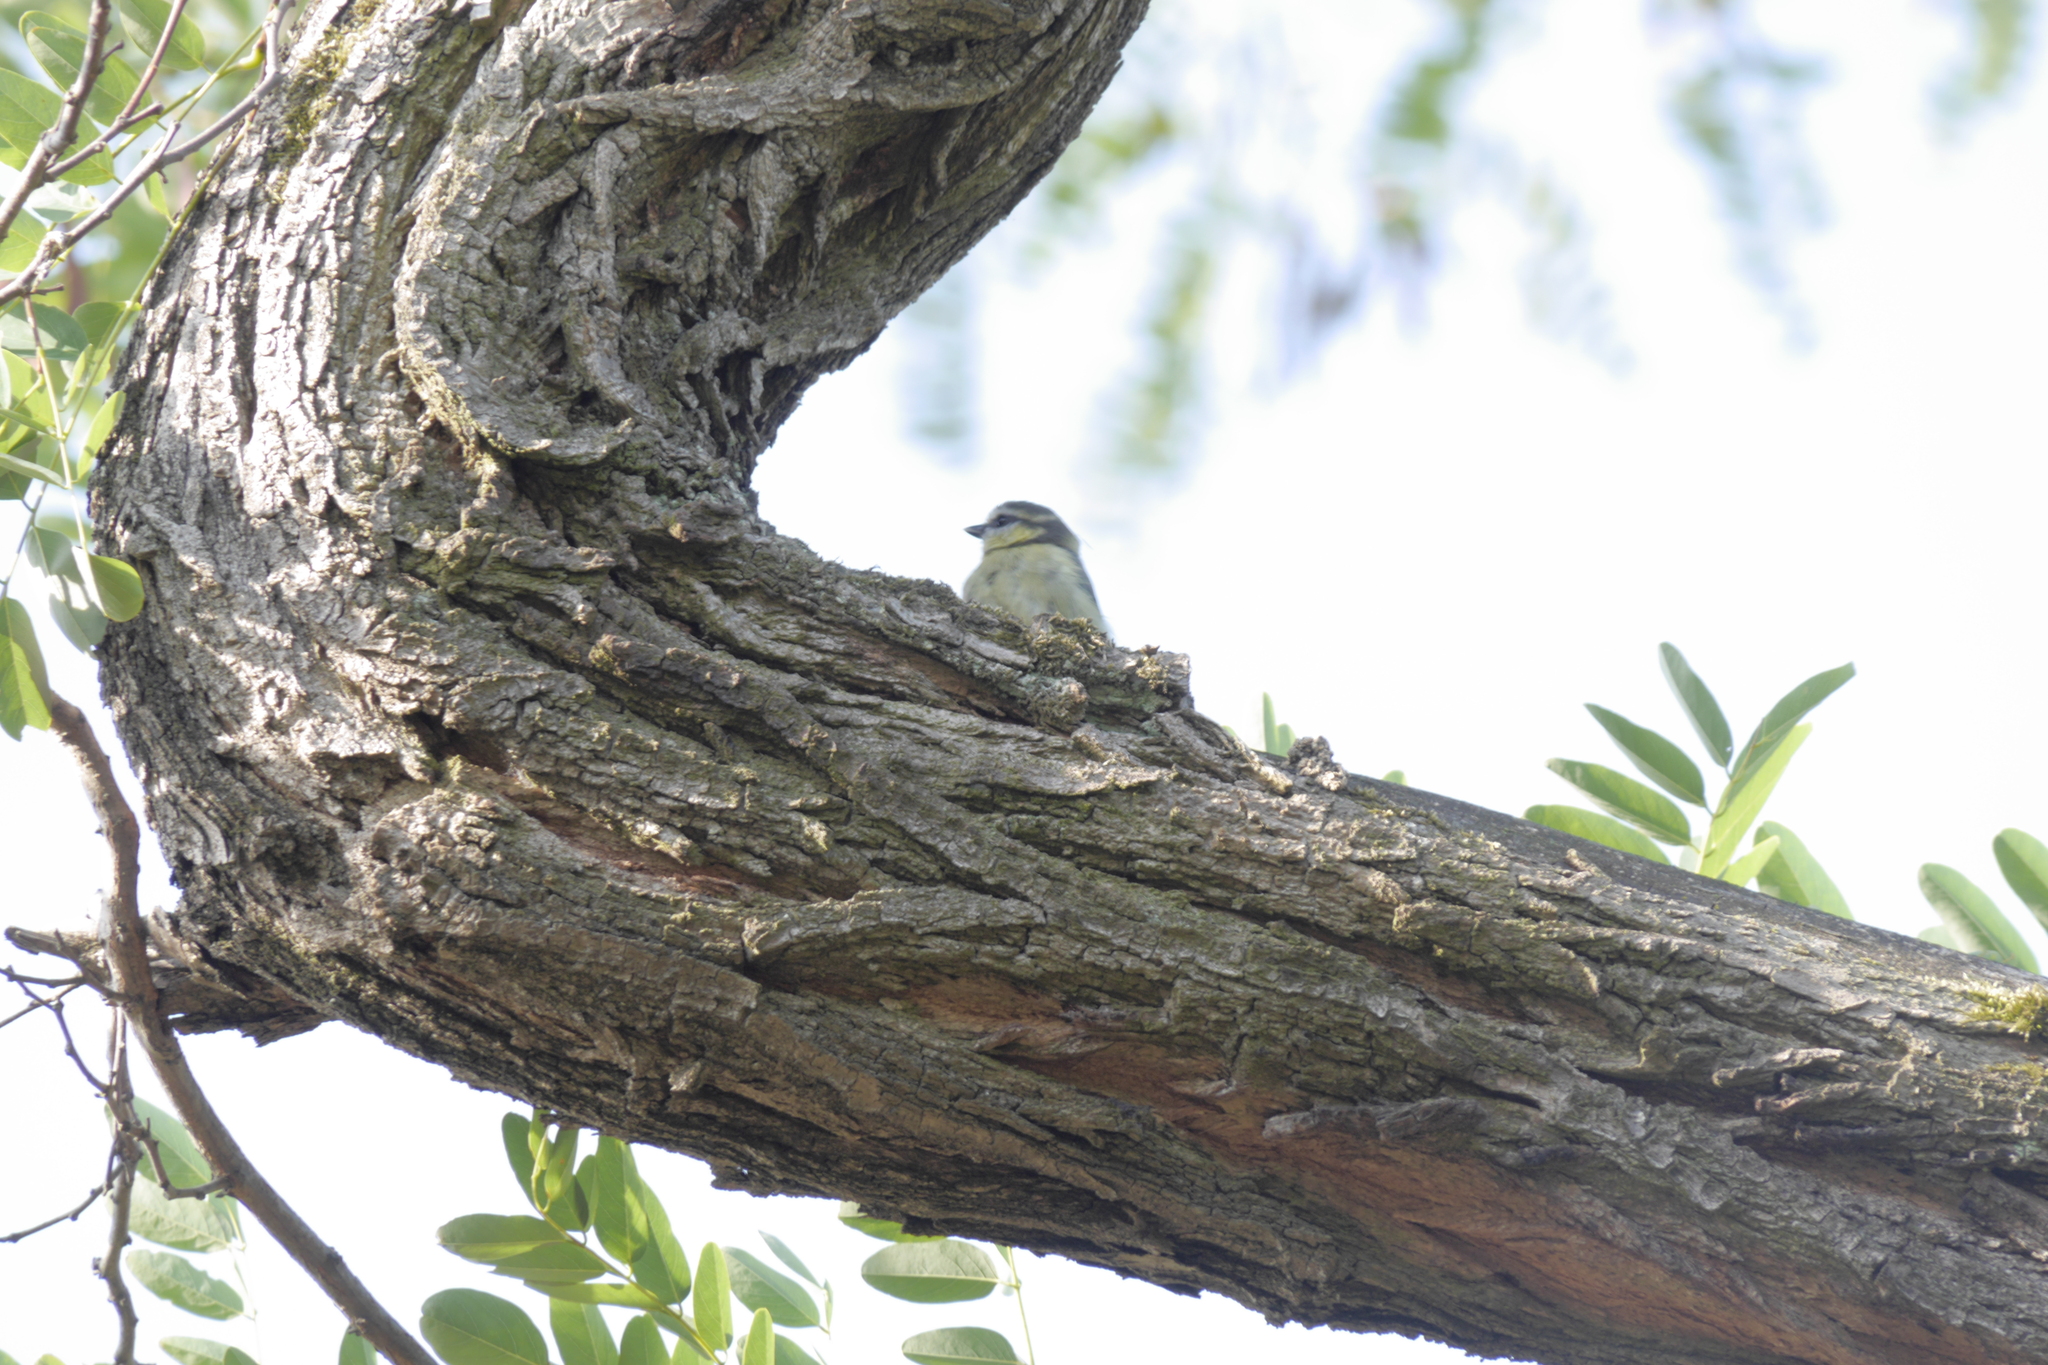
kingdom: Animalia
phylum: Chordata
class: Aves
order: Passeriformes
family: Paridae
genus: Cyanistes
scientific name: Cyanistes caeruleus
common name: Eurasian blue tit
